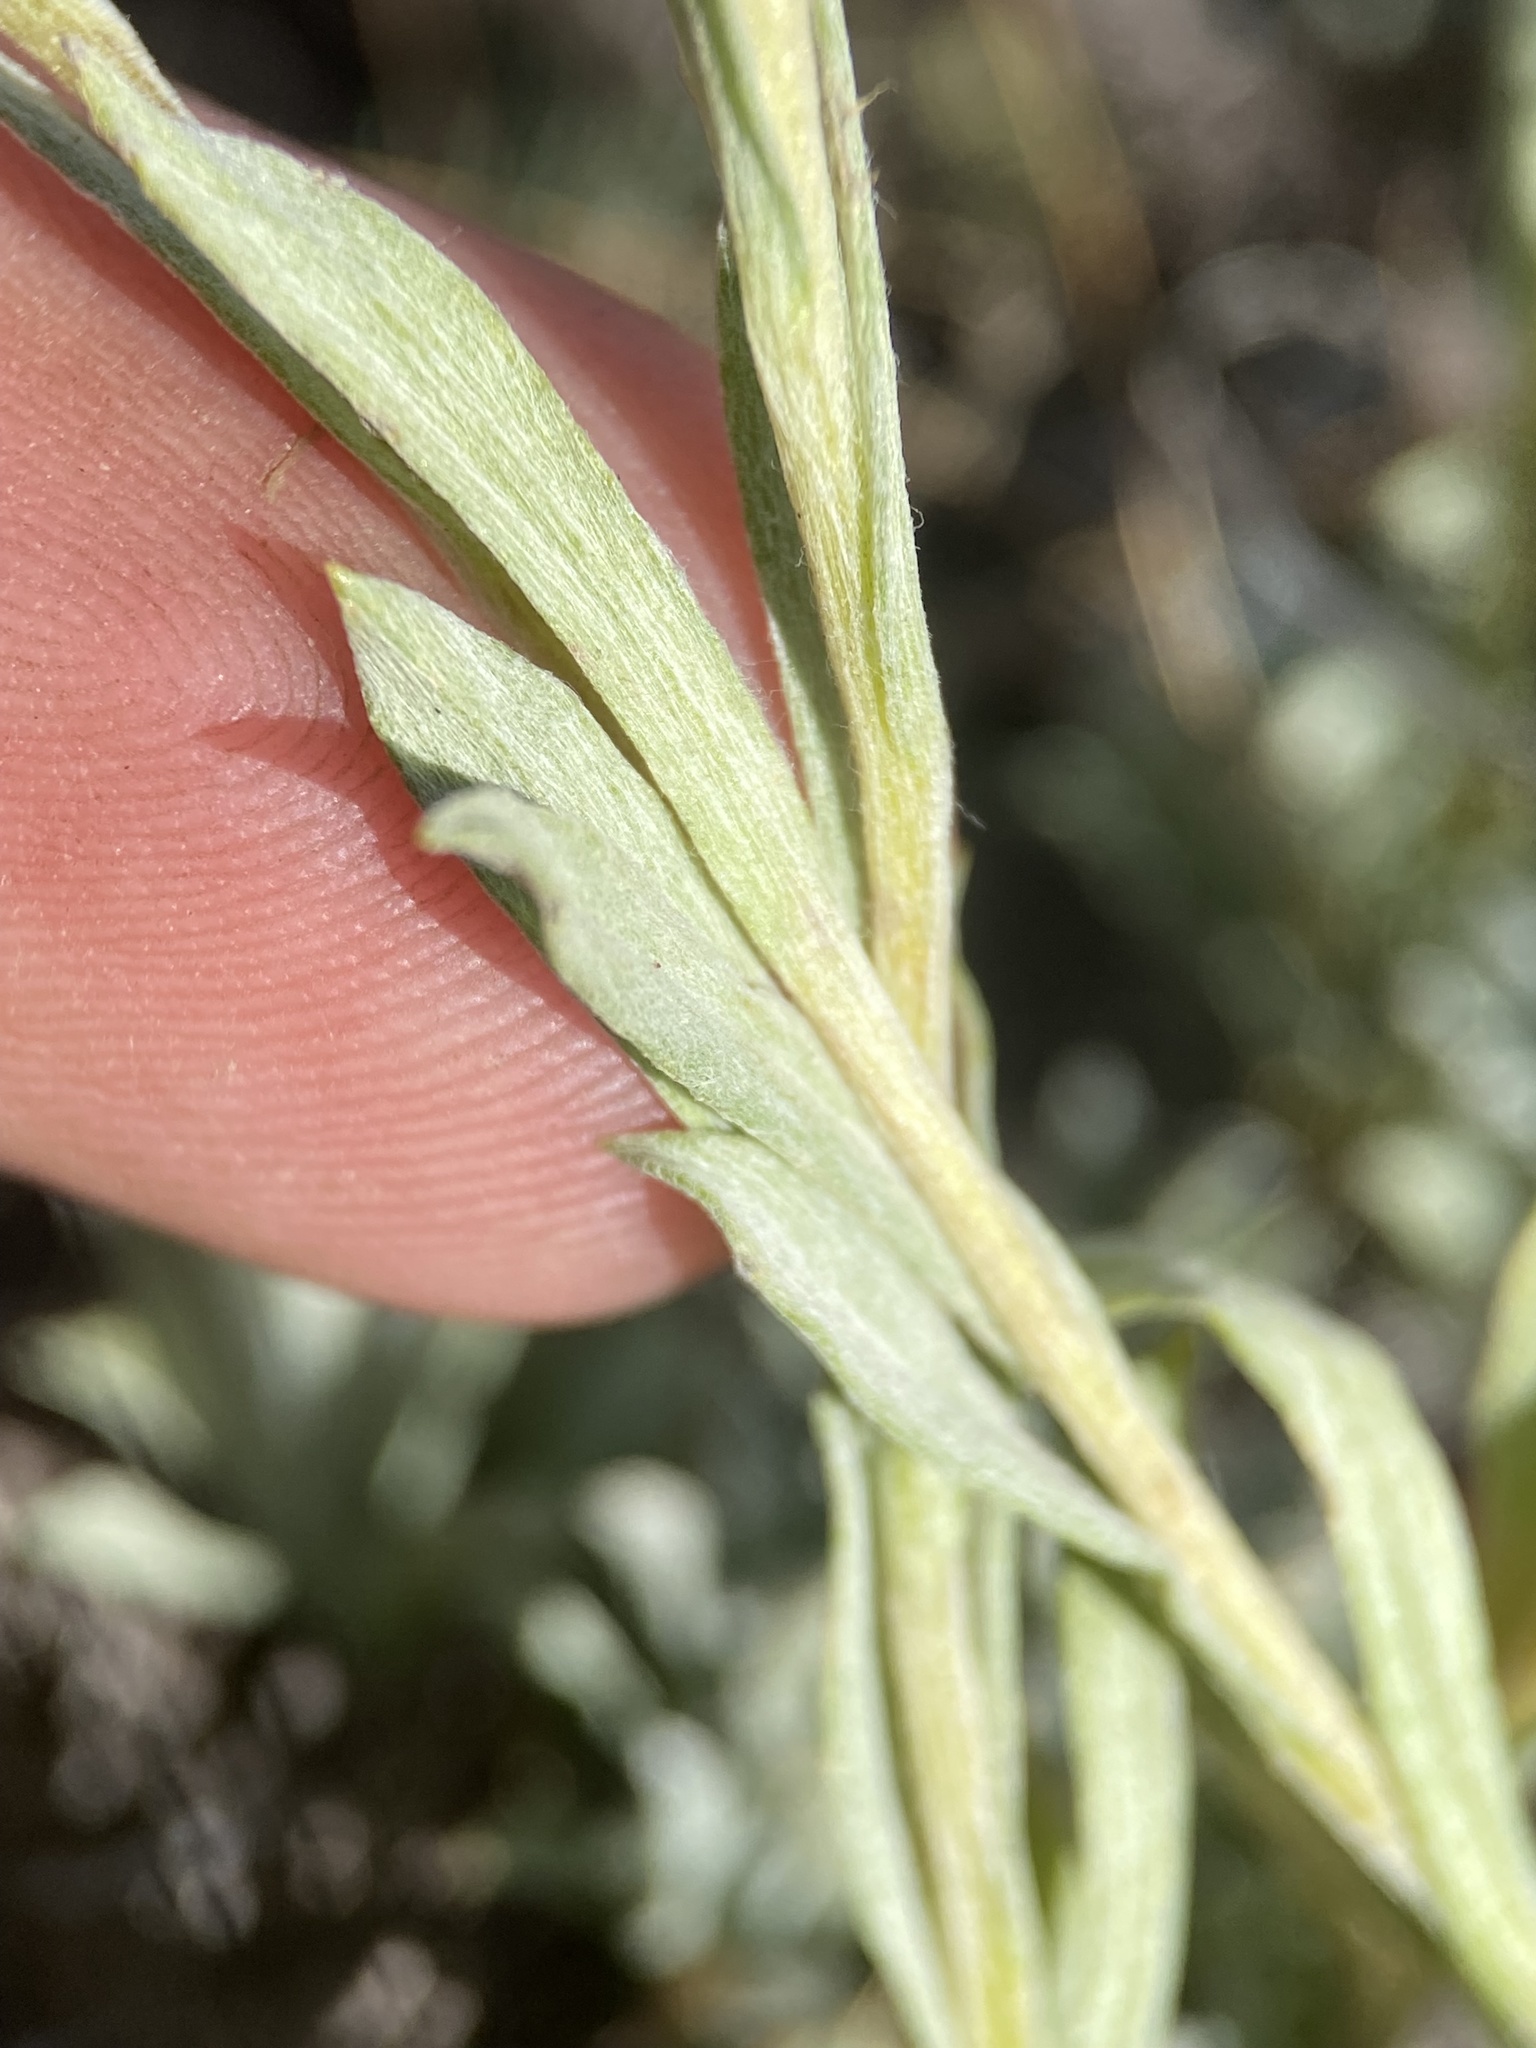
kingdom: Plantae
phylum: Tracheophyta
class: Magnoliopsida
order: Asterales
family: Asteraceae
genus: Antennaria
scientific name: Antennaria arcuata
